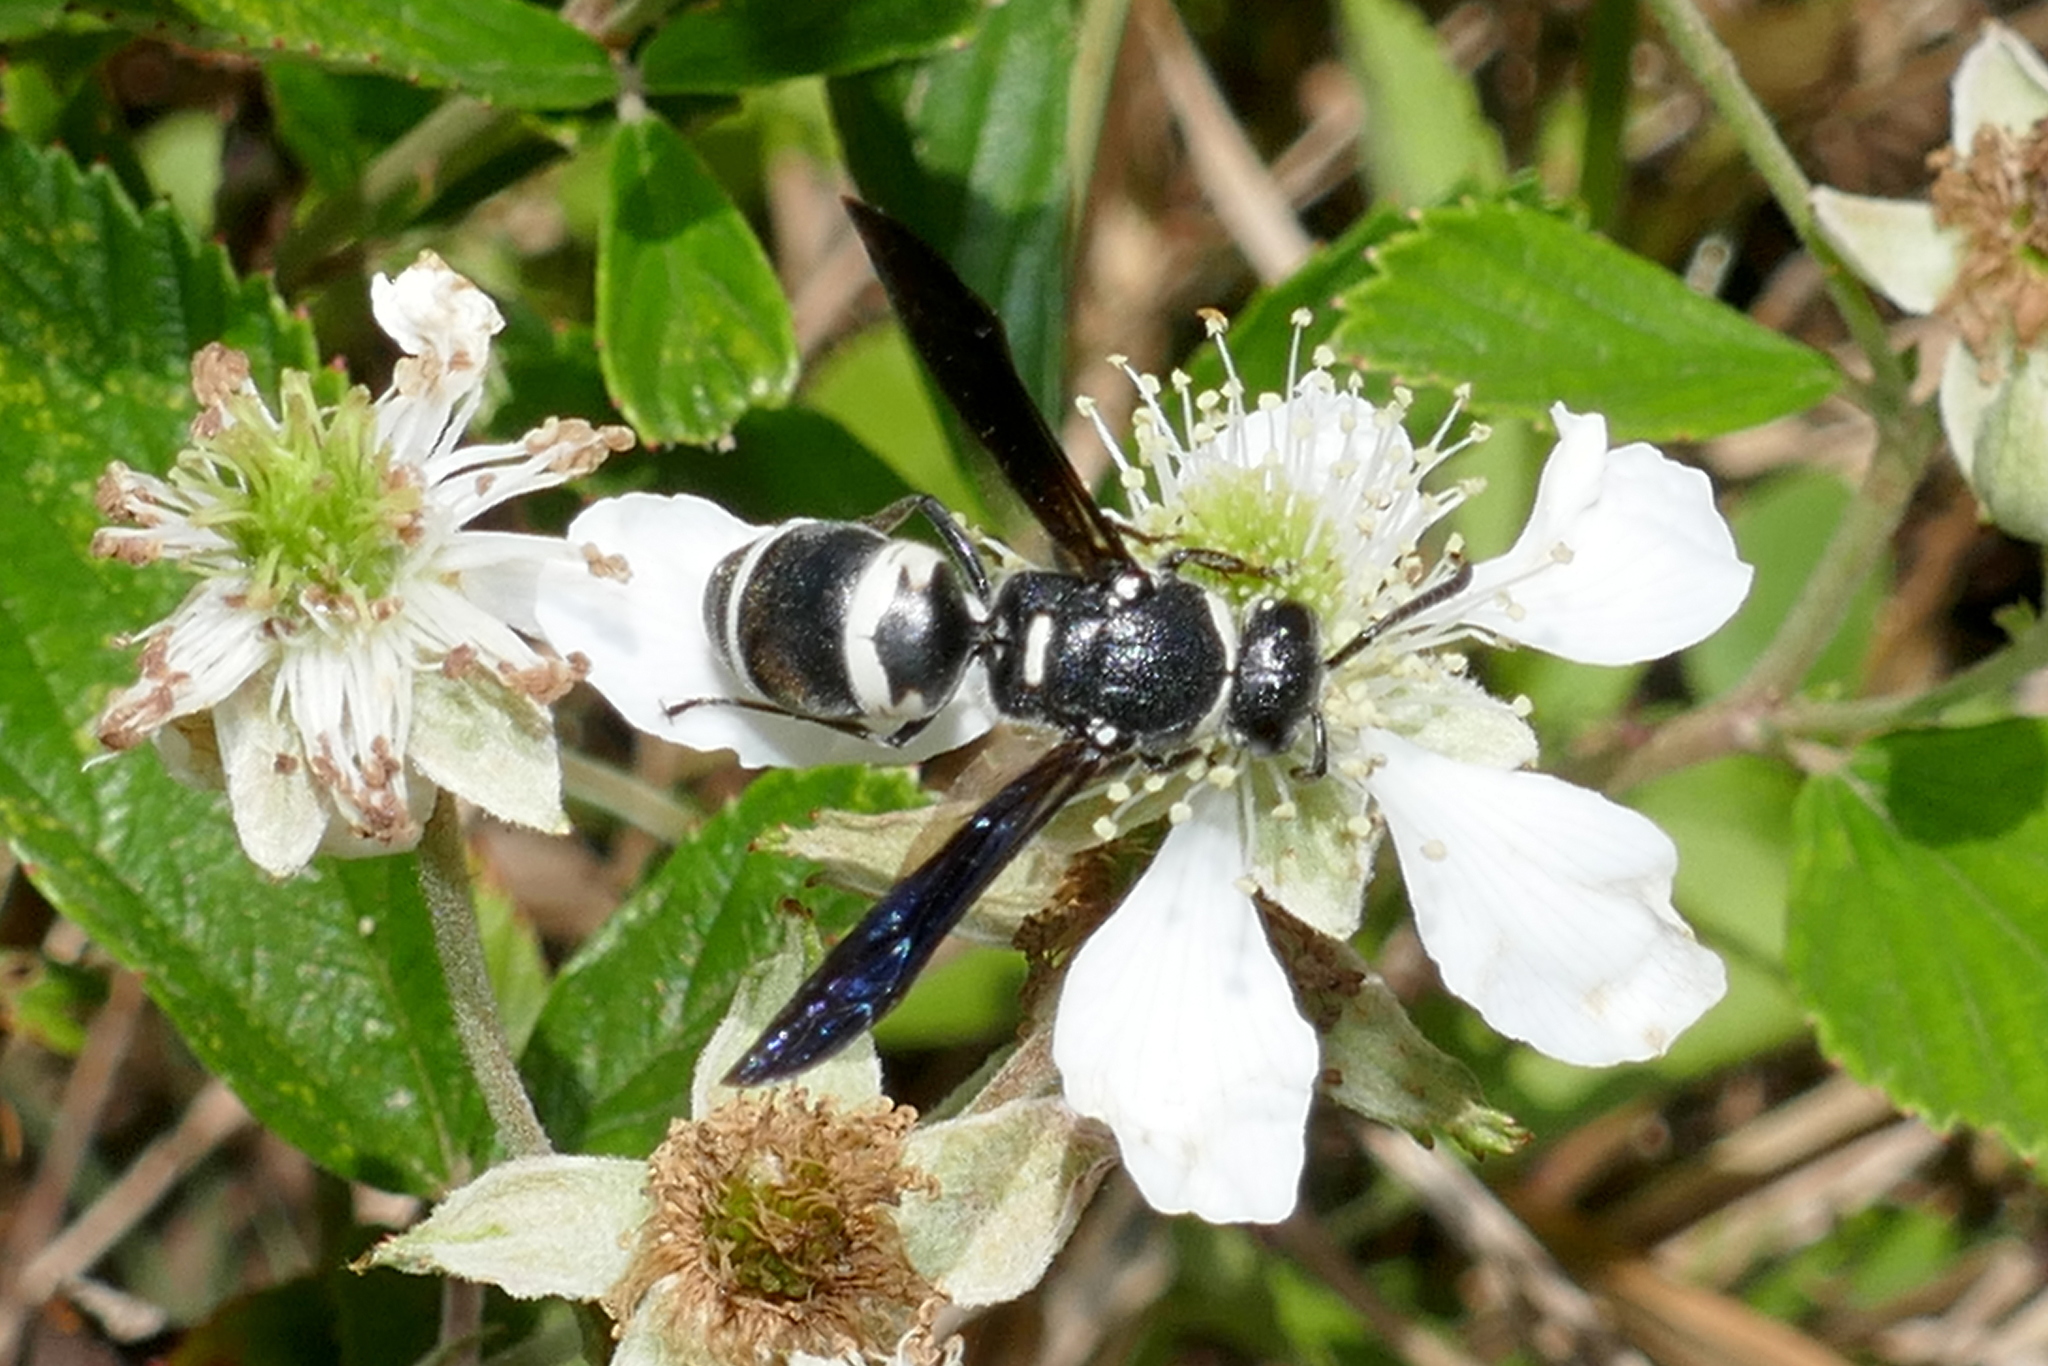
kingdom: Animalia
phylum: Arthropoda
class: Insecta
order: Hymenoptera
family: Eumenidae
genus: Euodynerus
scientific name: Euodynerus megaera
